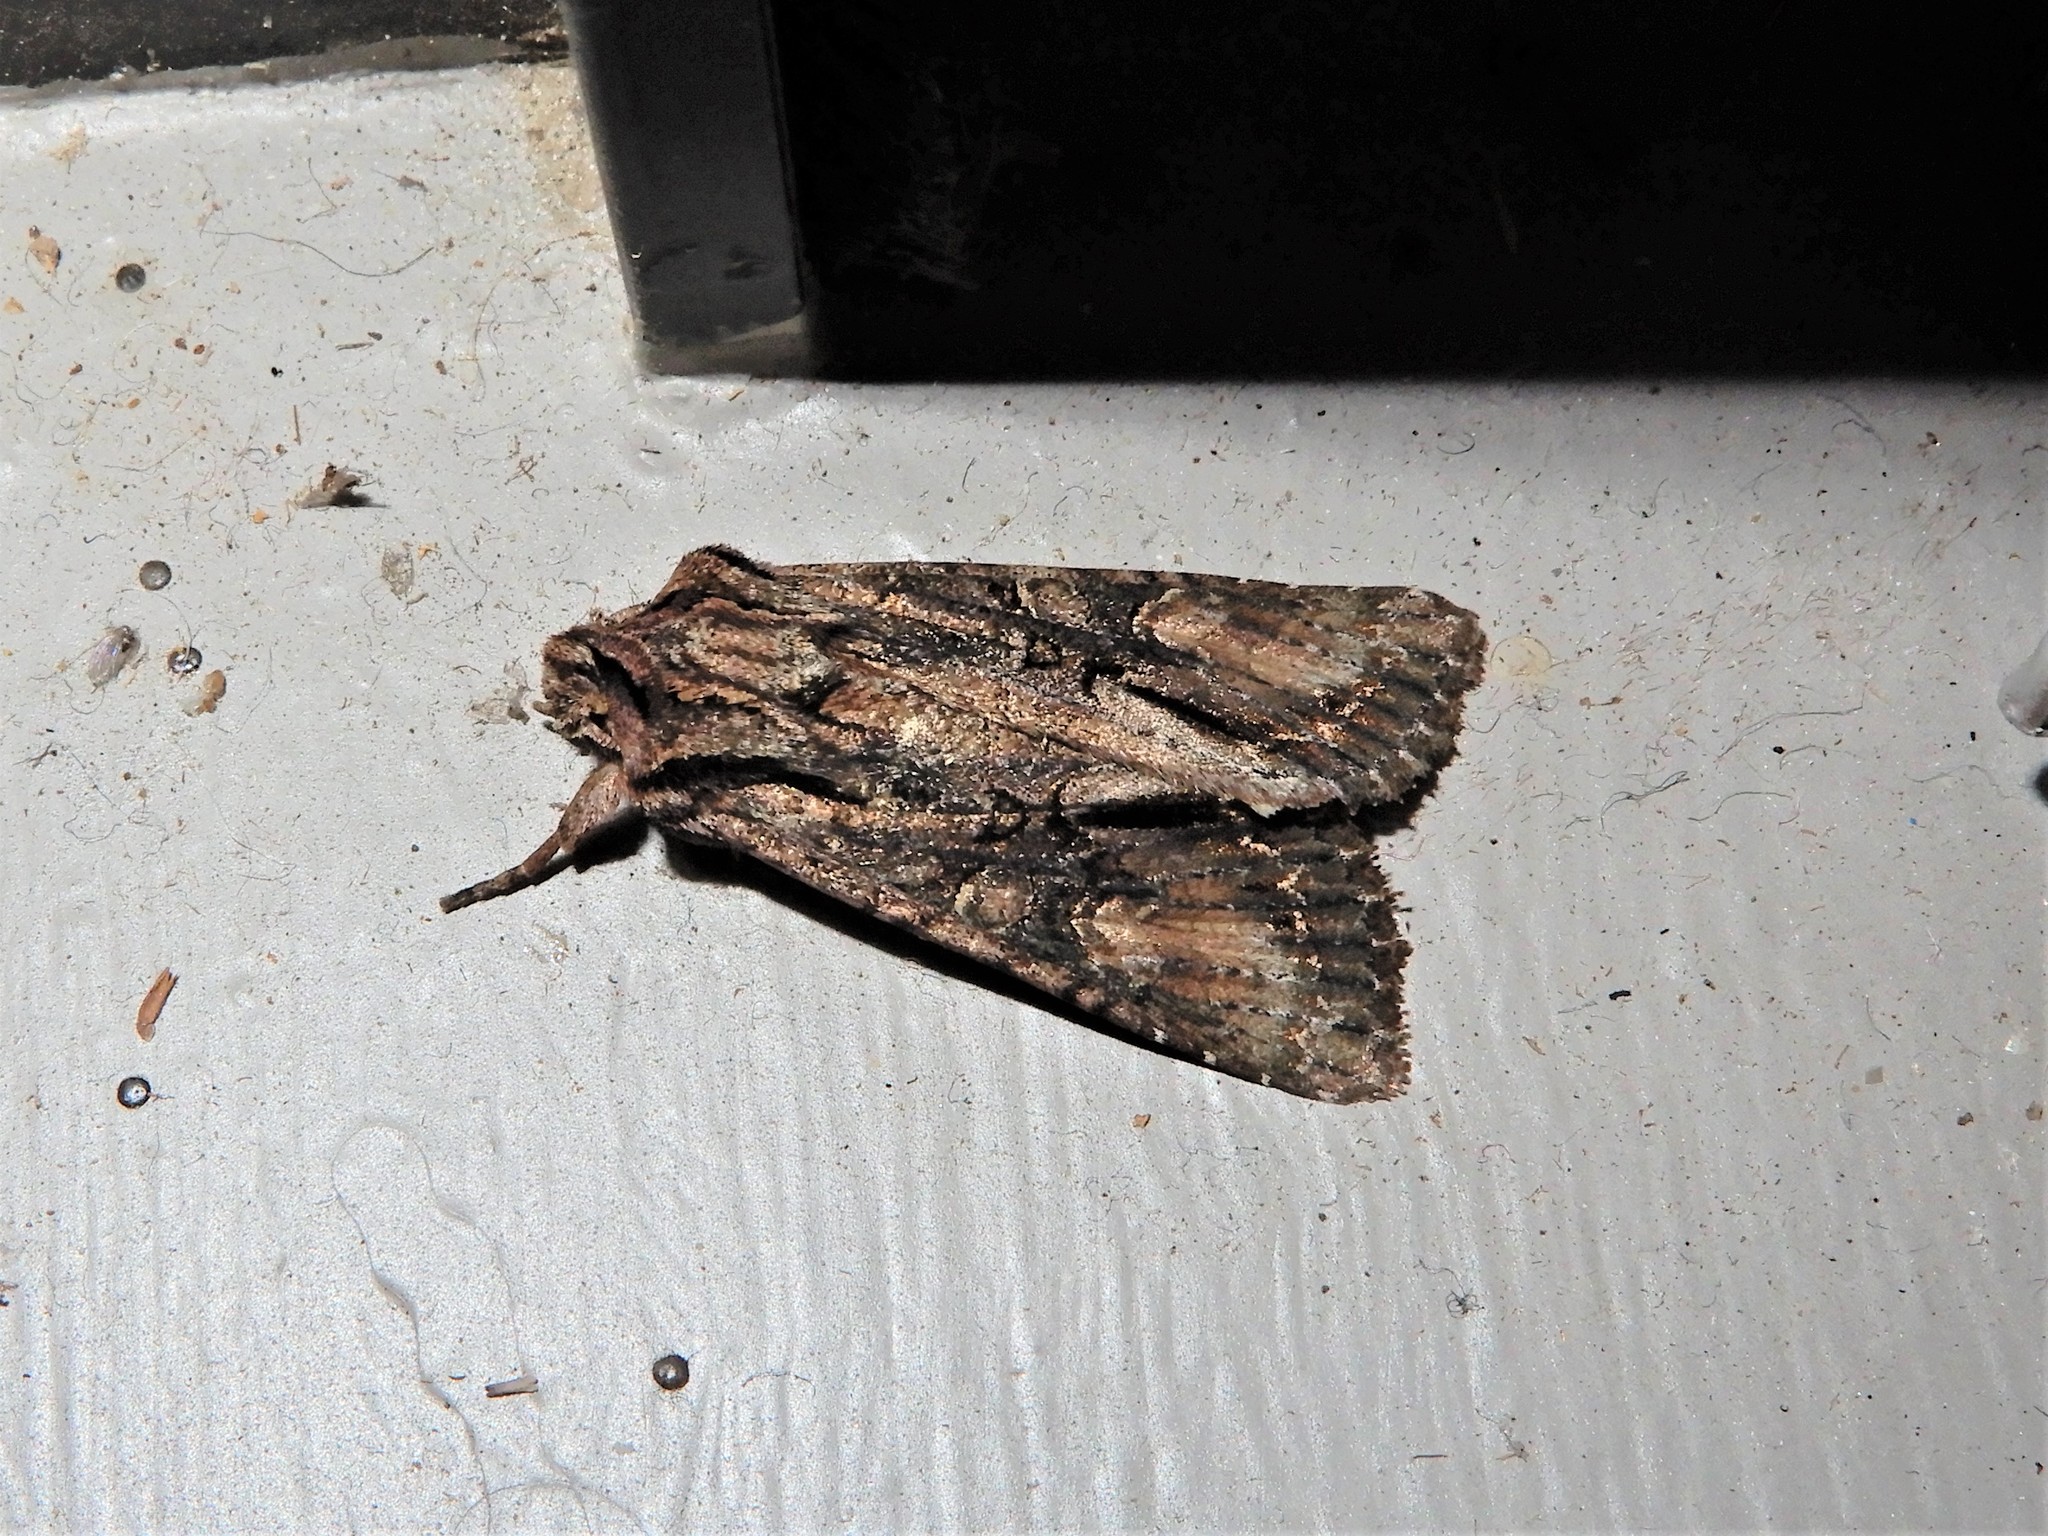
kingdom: Animalia
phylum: Arthropoda
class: Insecta
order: Lepidoptera
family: Noctuidae
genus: Ichneutica
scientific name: Ichneutica mutans
